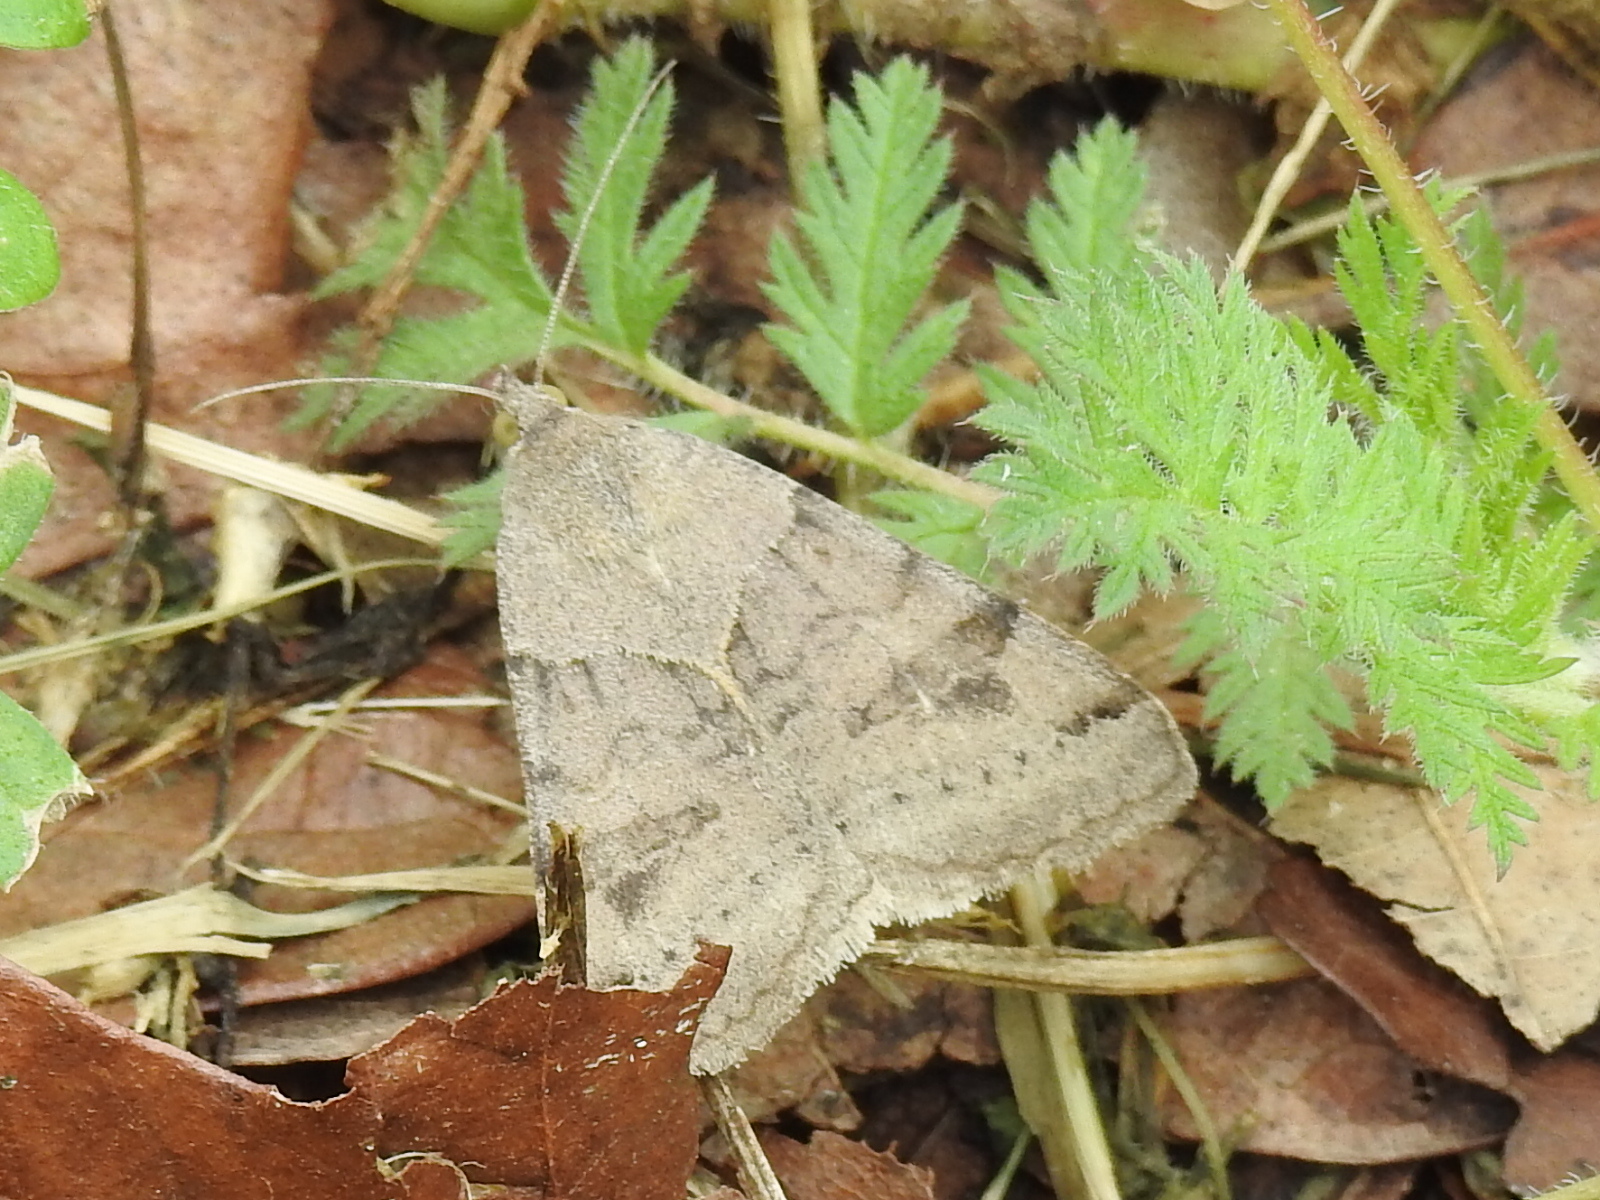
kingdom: Animalia
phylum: Arthropoda
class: Insecta
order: Lepidoptera
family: Erebidae
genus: Caenurgina
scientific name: Caenurgina erechtea
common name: Forage looper moth
